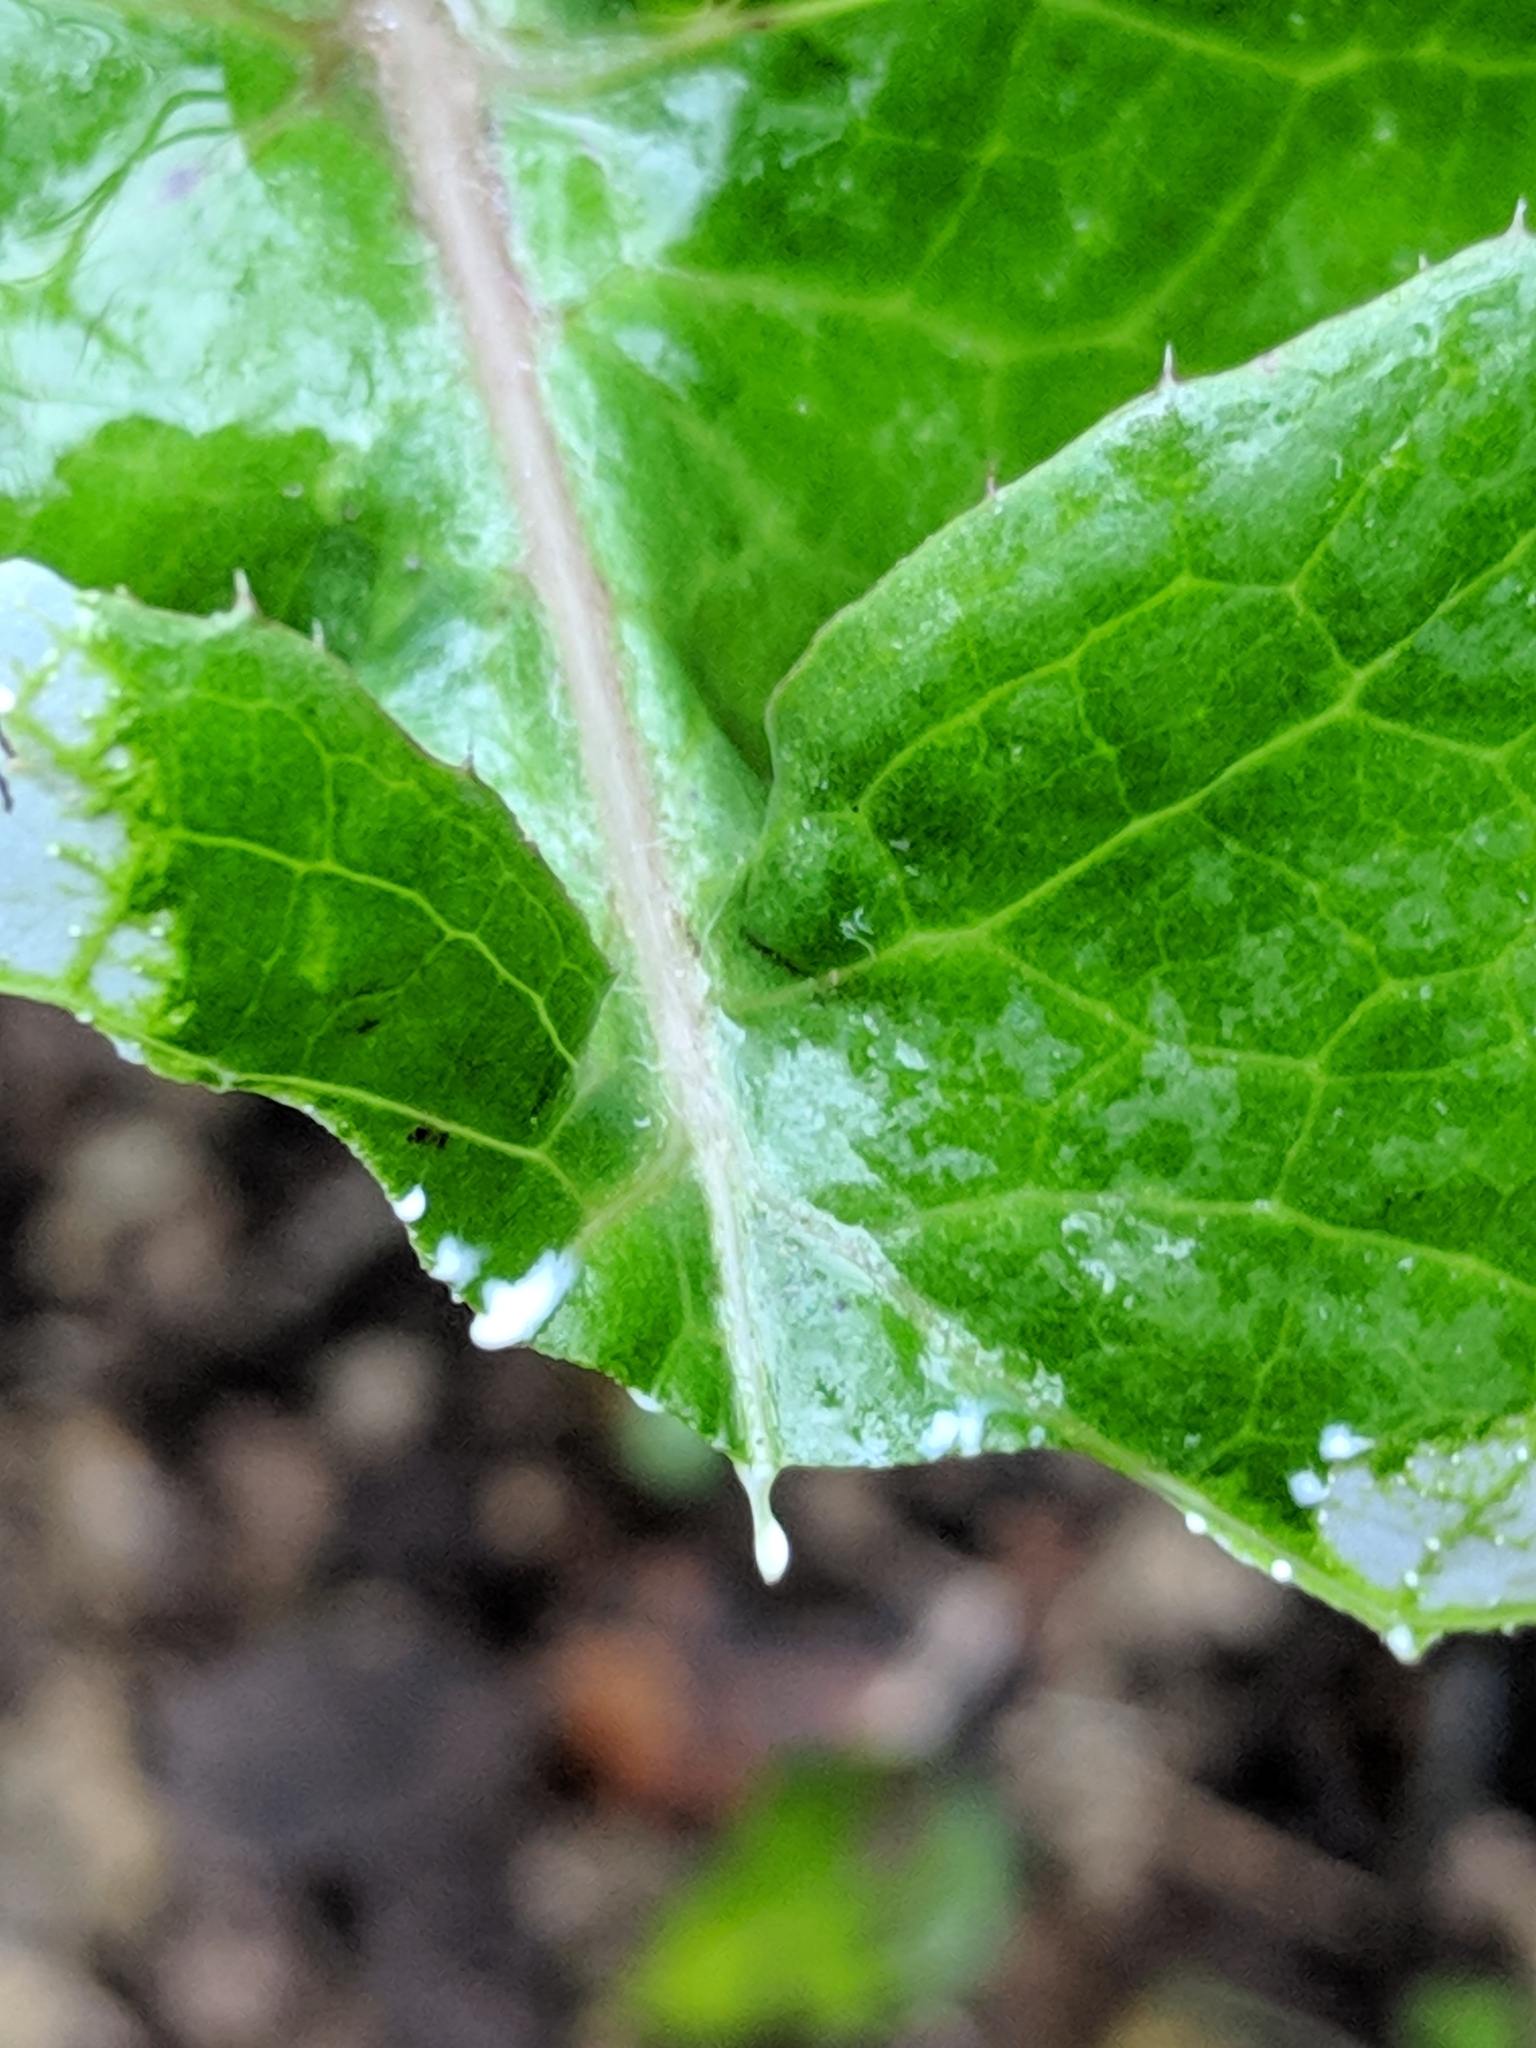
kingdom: Plantae
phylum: Tracheophyta
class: Magnoliopsida
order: Asterales
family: Asteraceae
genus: Sonchus
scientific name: Sonchus oleraceus
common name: Common sowthistle
